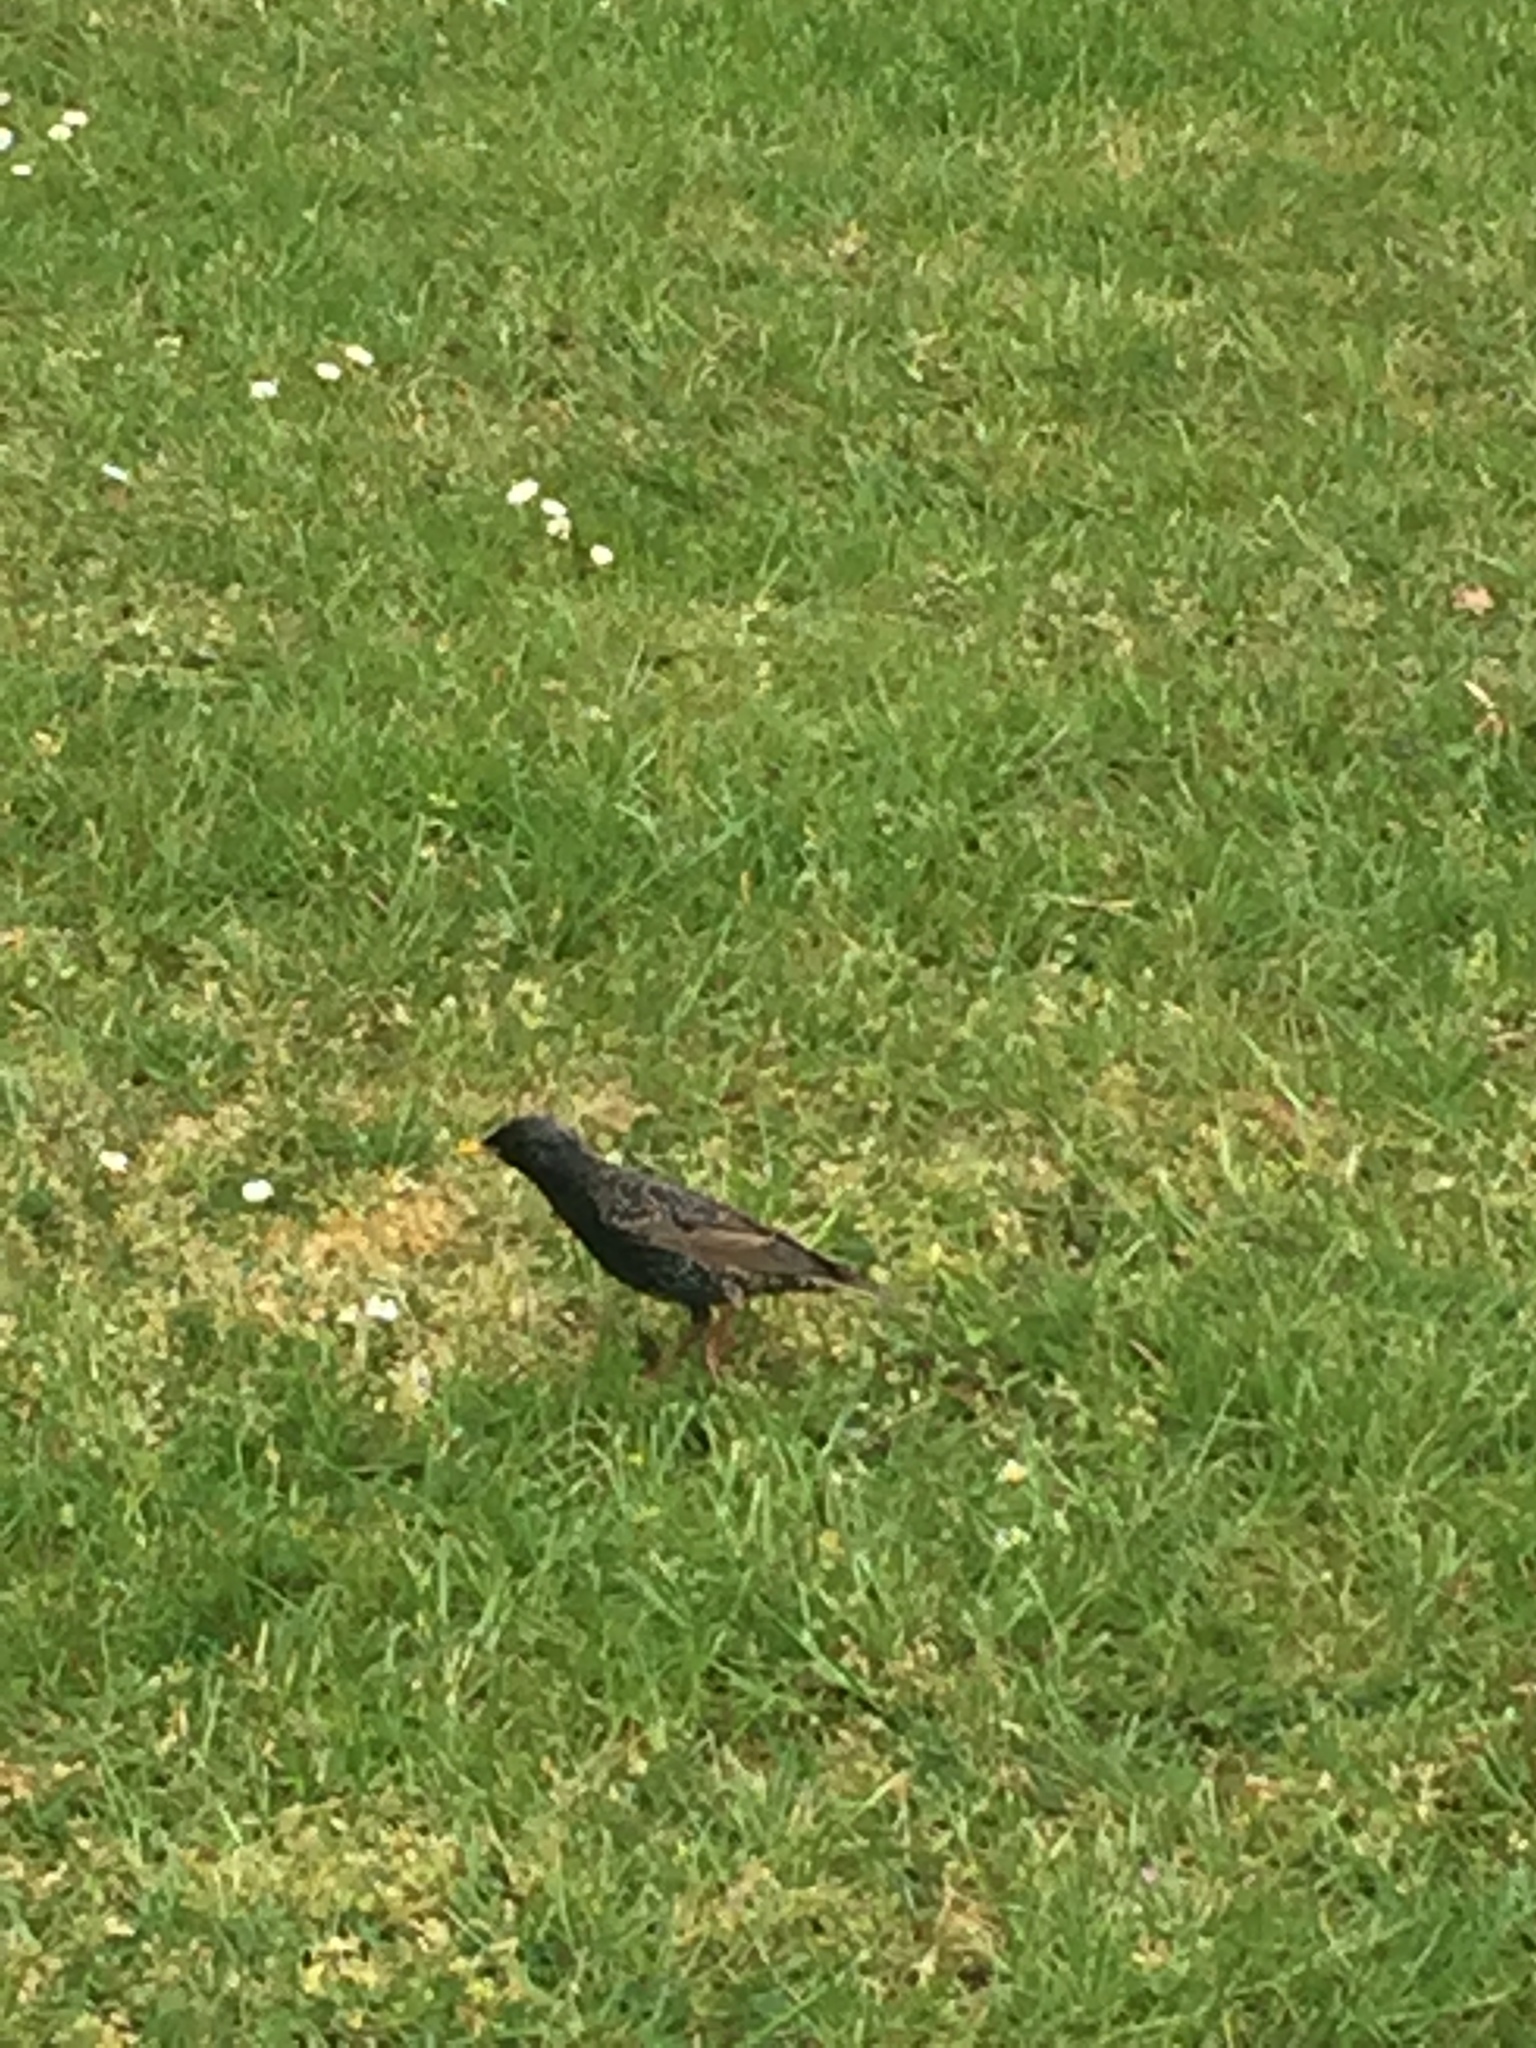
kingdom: Animalia
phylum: Chordata
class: Aves
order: Passeriformes
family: Sturnidae
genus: Sturnus
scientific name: Sturnus vulgaris
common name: Common starling
